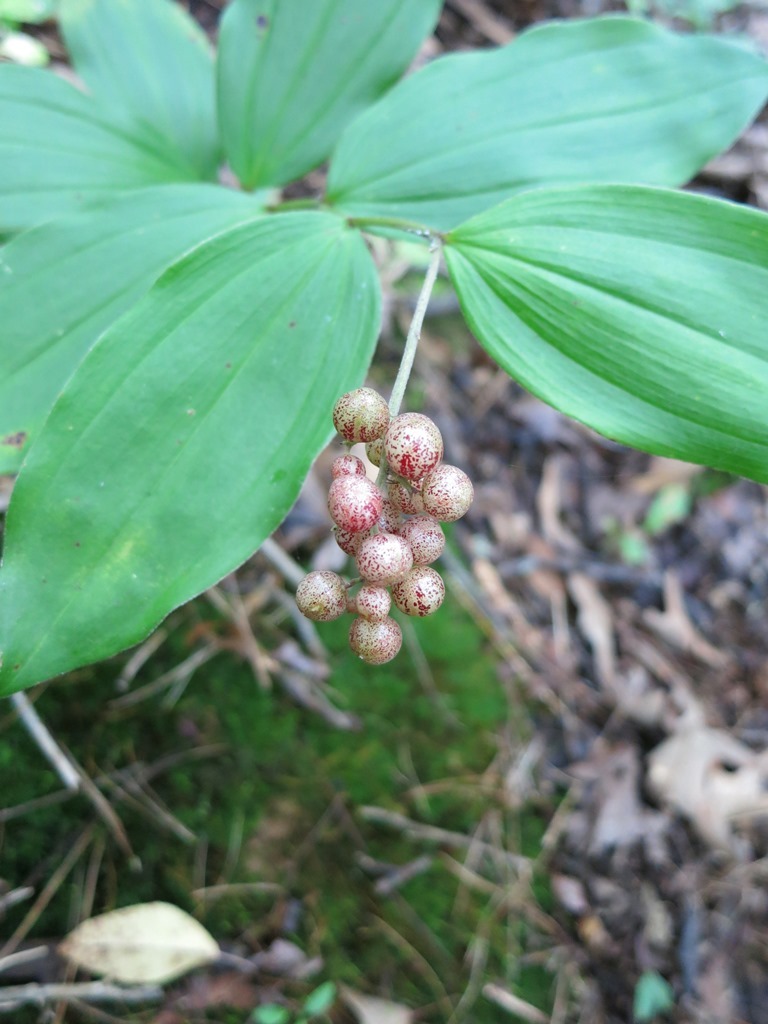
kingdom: Plantae
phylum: Tracheophyta
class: Liliopsida
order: Asparagales
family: Asparagaceae
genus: Maianthemum
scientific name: Maianthemum racemosum
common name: False spikenard
